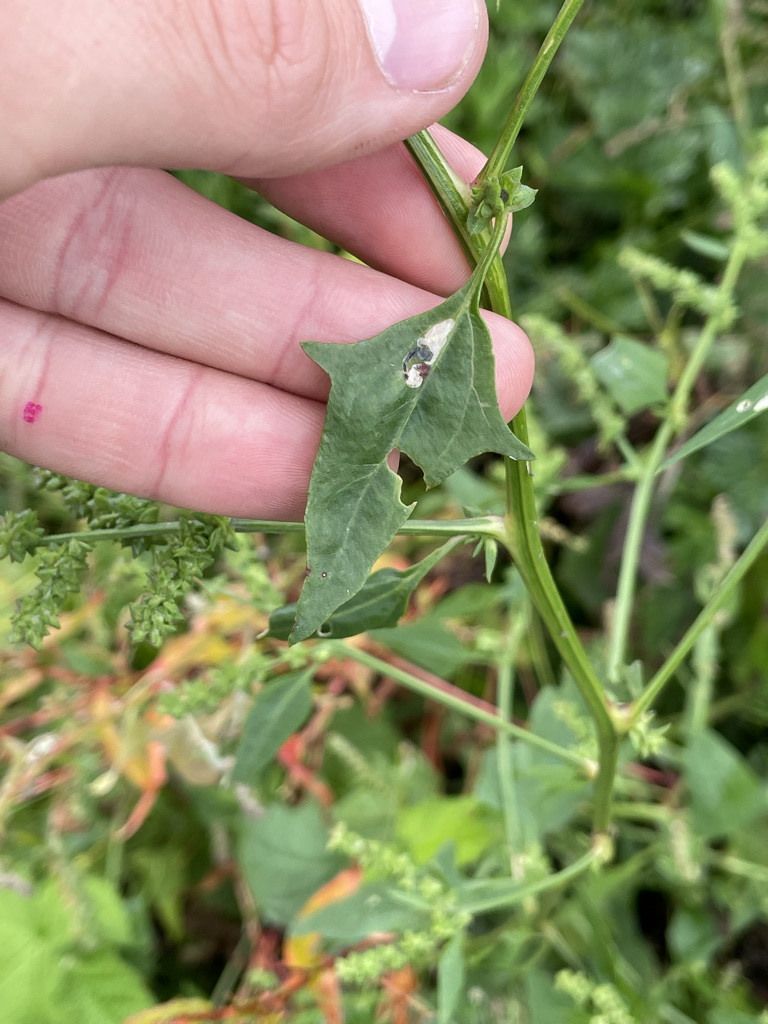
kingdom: Plantae
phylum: Tracheophyta
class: Magnoliopsida
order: Caryophyllales
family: Amaranthaceae
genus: Atriplex
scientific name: Atriplex patula
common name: Common orache
